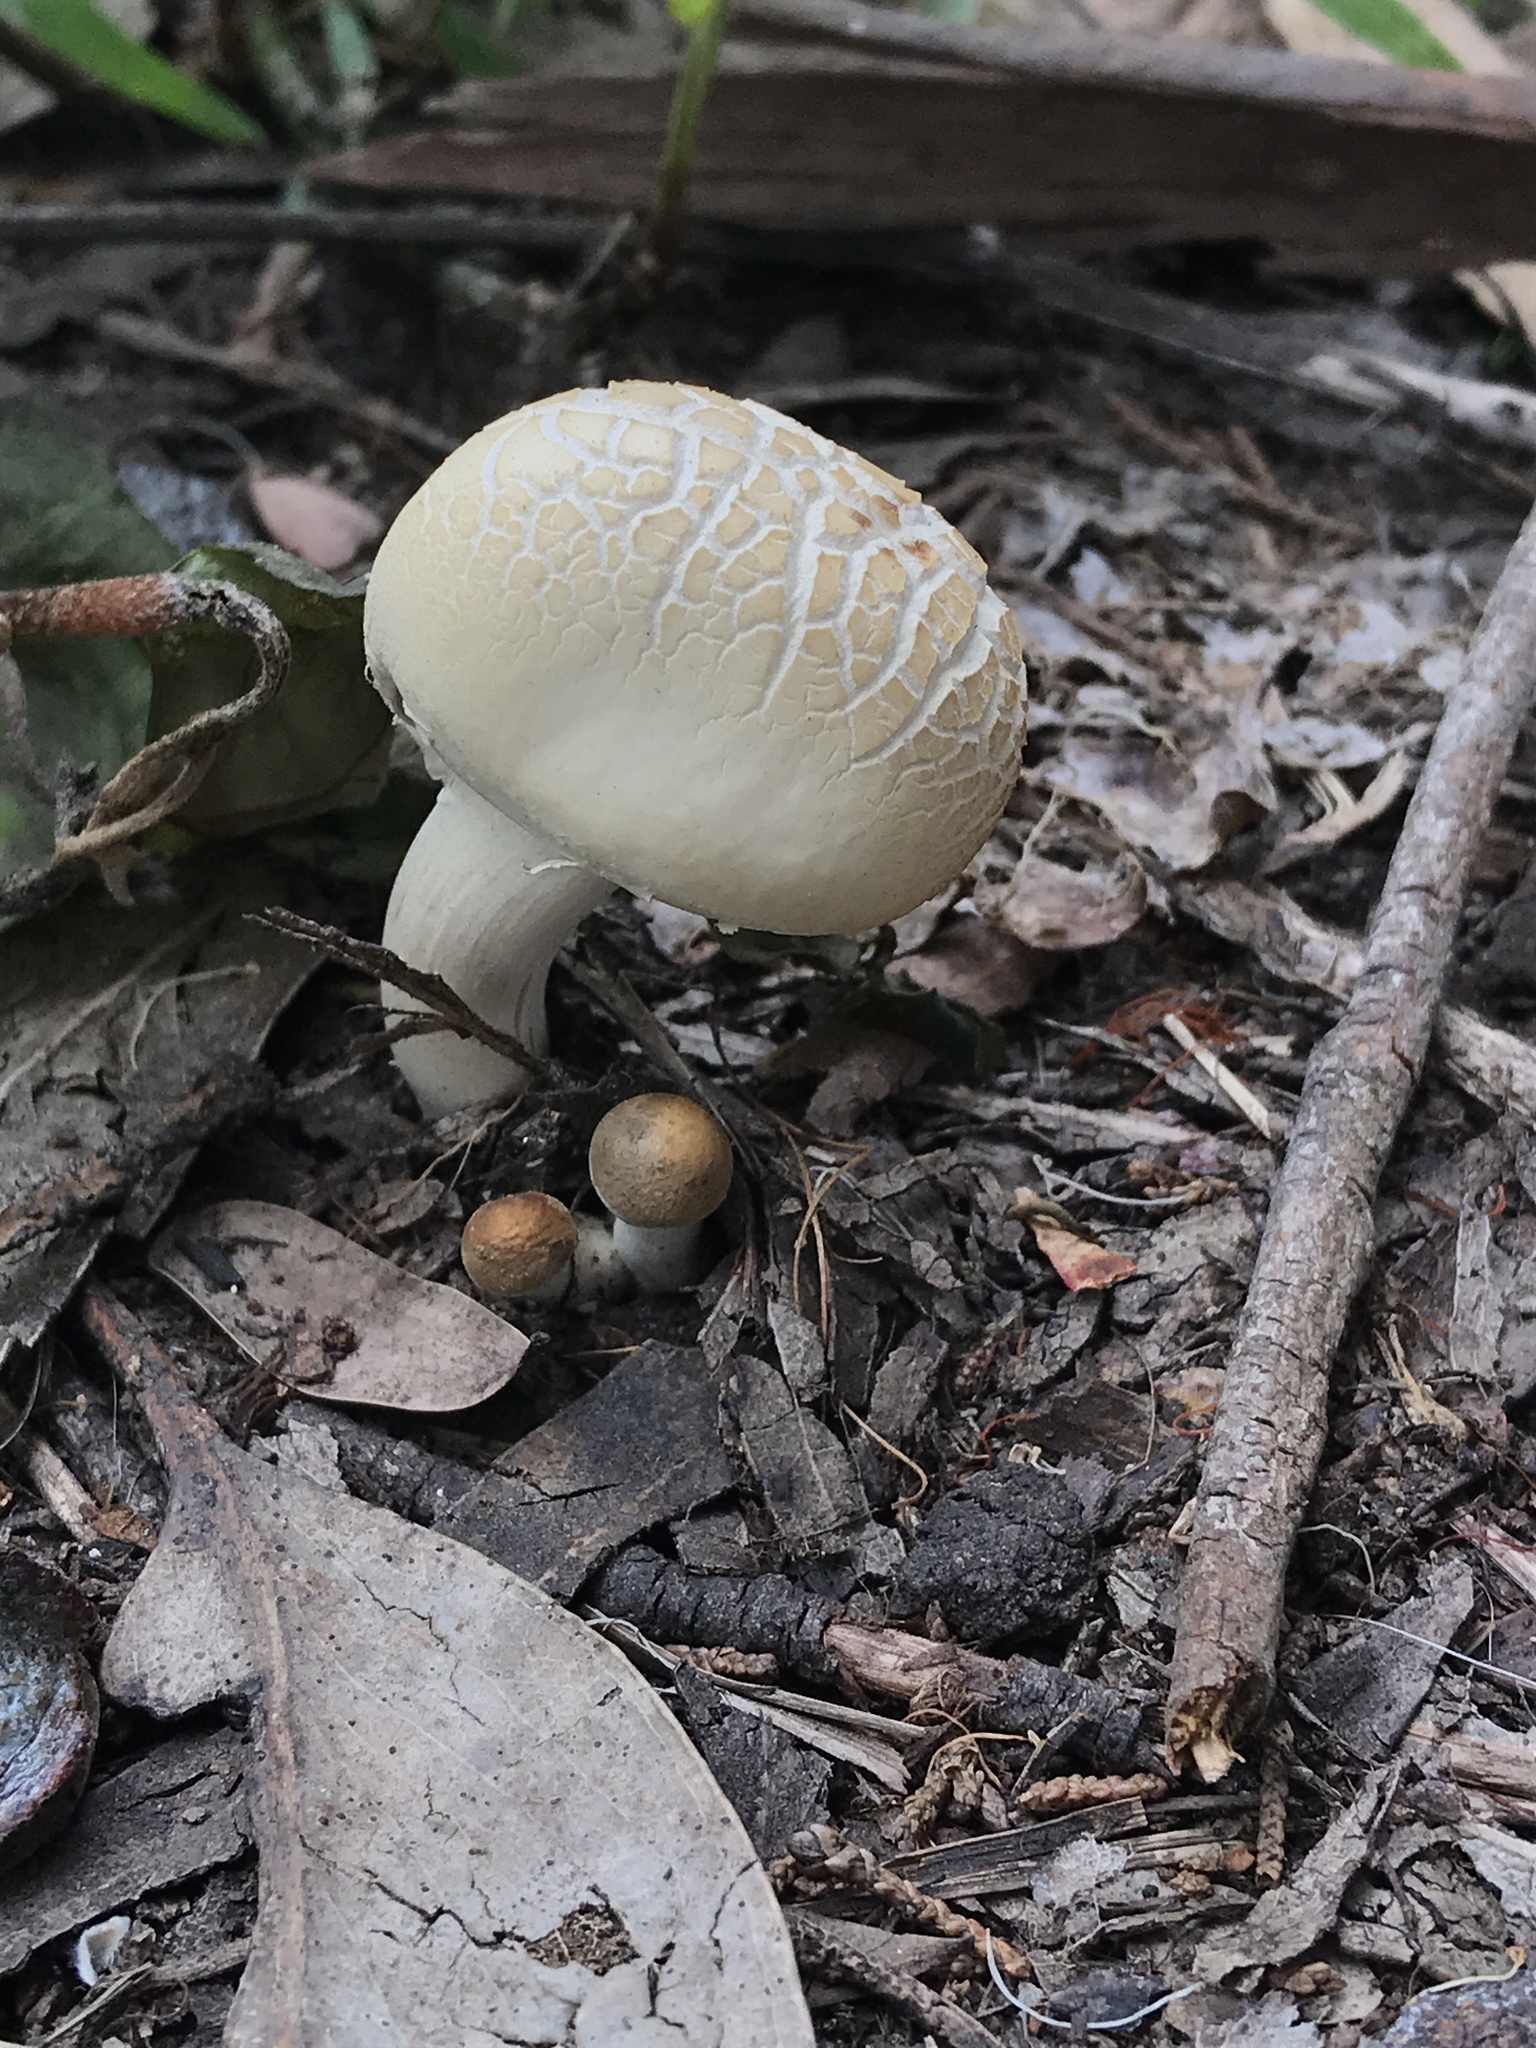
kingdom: Fungi
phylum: Basidiomycota
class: Agaricomycetes
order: Agaricales
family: Strophariaceae
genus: Agrocybe
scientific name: Agrocybe praecox
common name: Spring fieldcap
